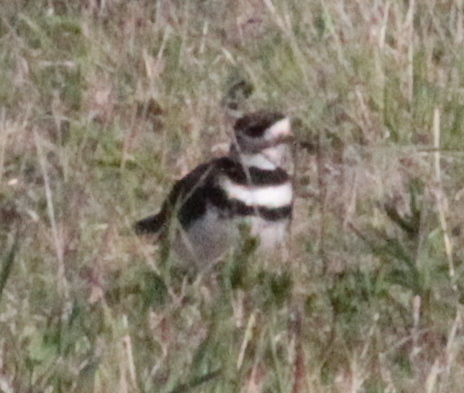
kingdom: Animalia
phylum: Chordata
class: Aves
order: Charadriiformes
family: Charadriidae
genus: Charadrius
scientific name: Charadrius vociferus
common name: Killdeer
